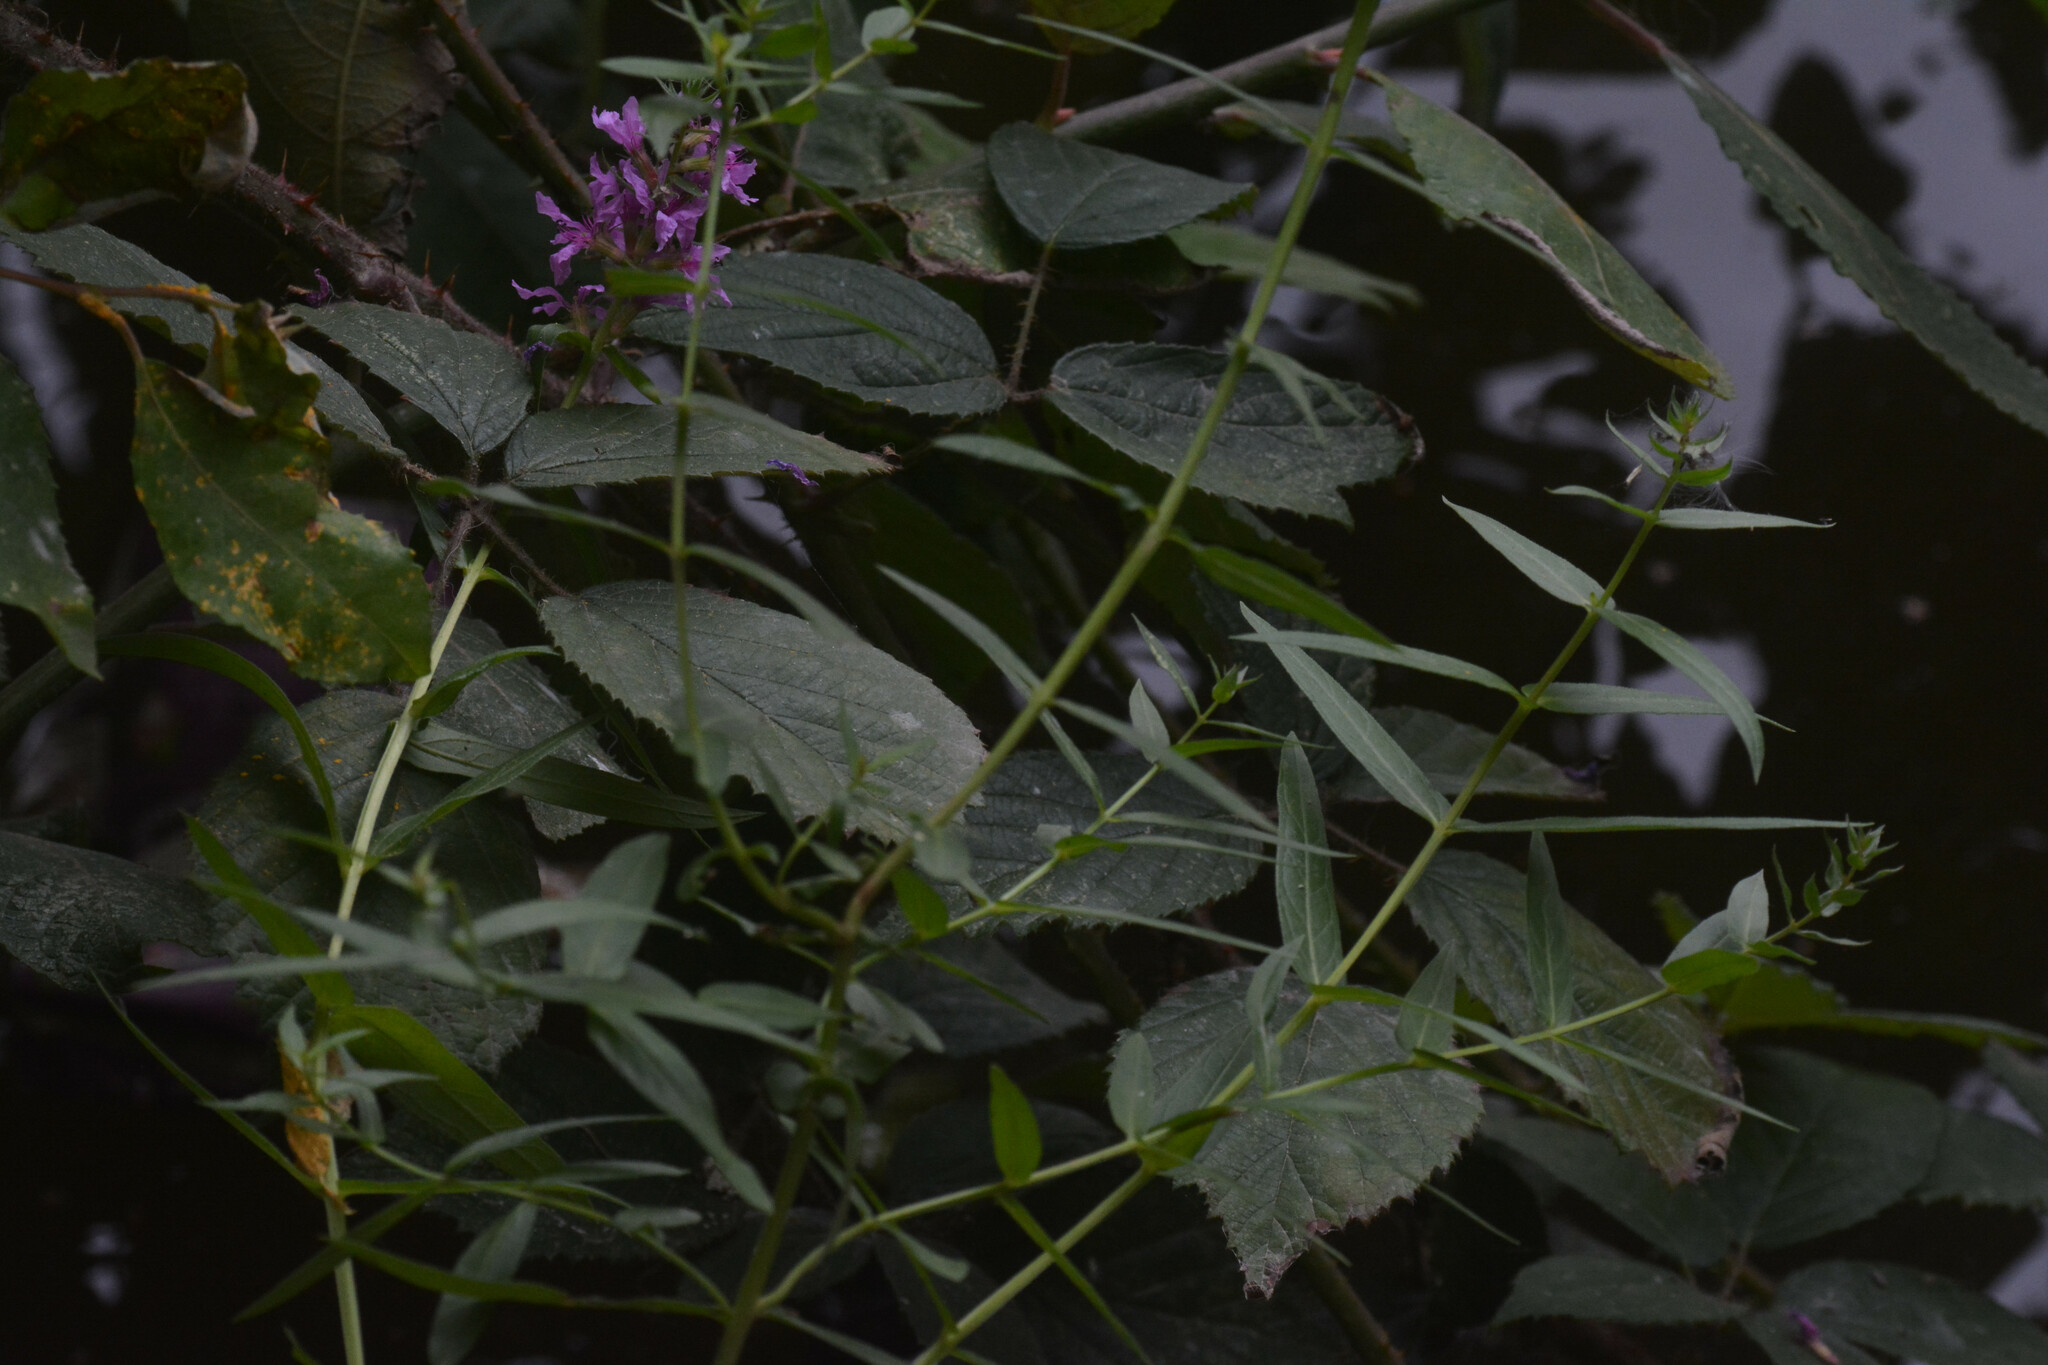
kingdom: Plantae
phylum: Tracheophyta
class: Magnoliopsida
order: Myrtales
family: Lythraceae
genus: Lythrum
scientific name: Lythrum salicaria
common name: Purple loosestrife
